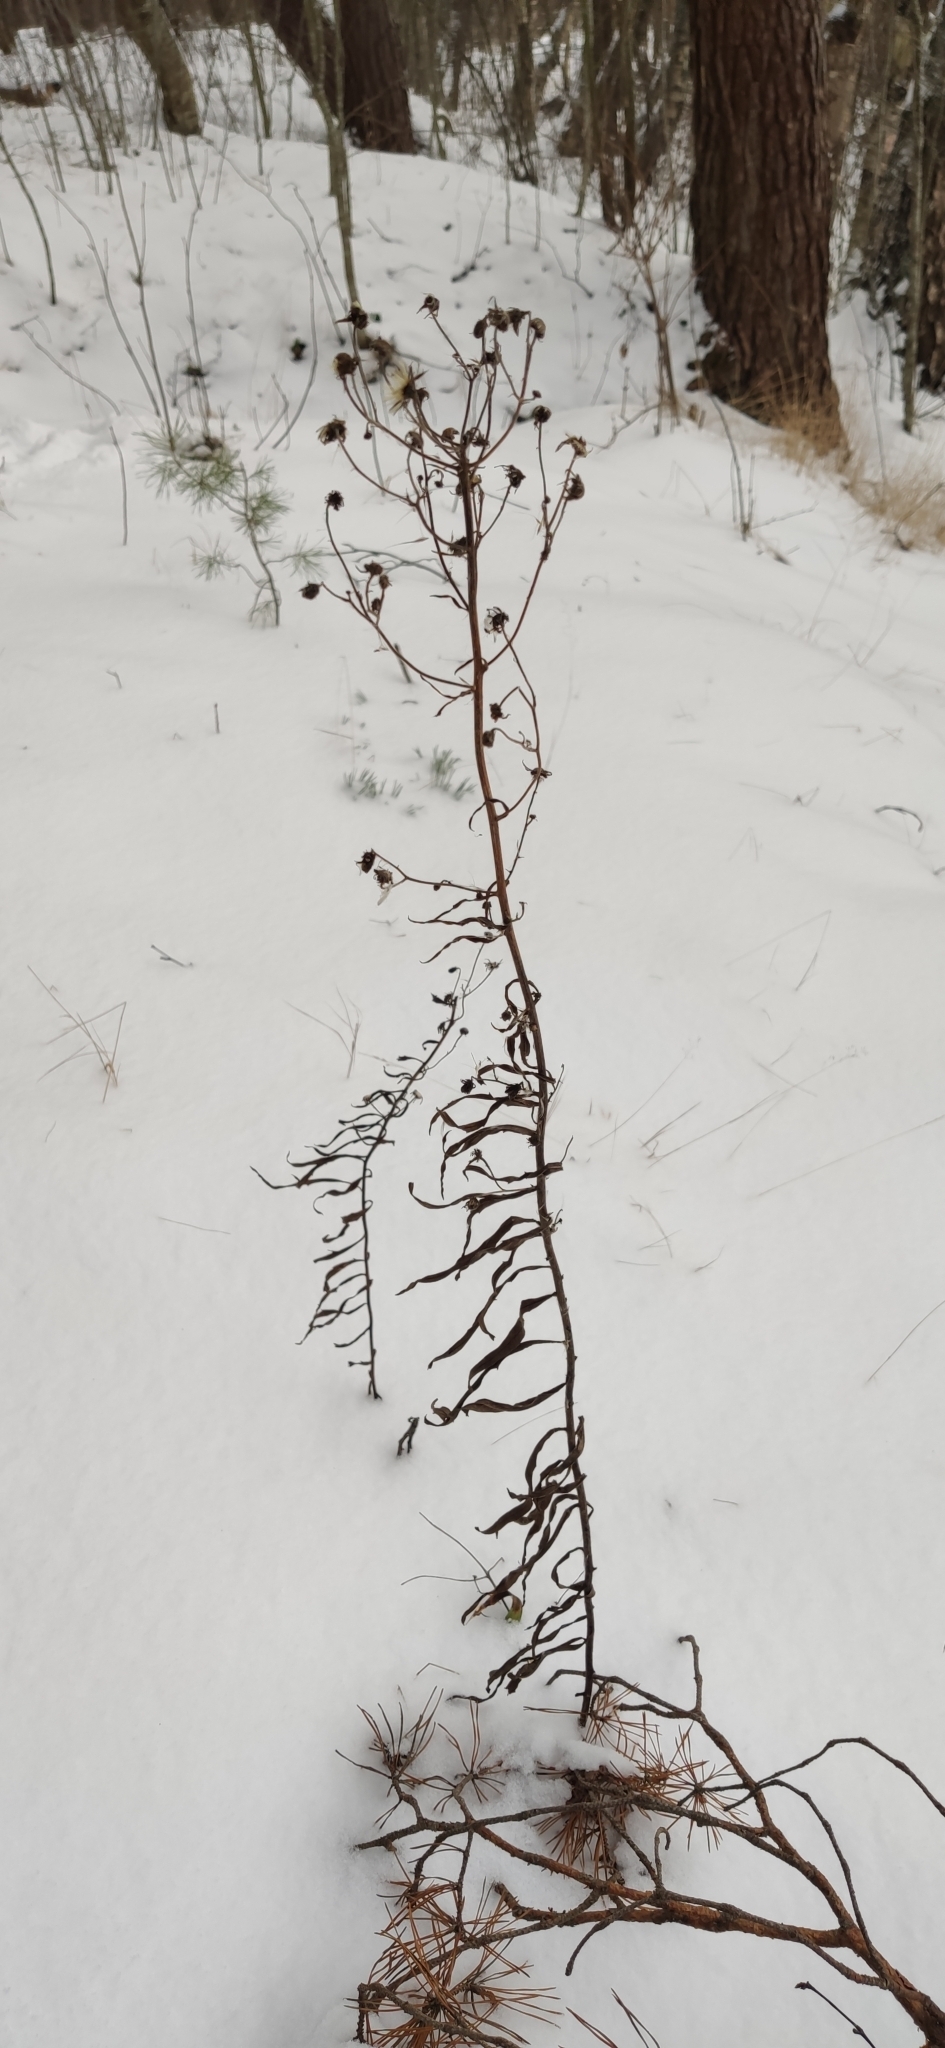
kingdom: Plantae
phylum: Tracheophyta
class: Magnoliopsida
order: Asterales
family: Asteraceae
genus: Hieracium
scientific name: Hieracium umbellatum
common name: Northern hawkweed
